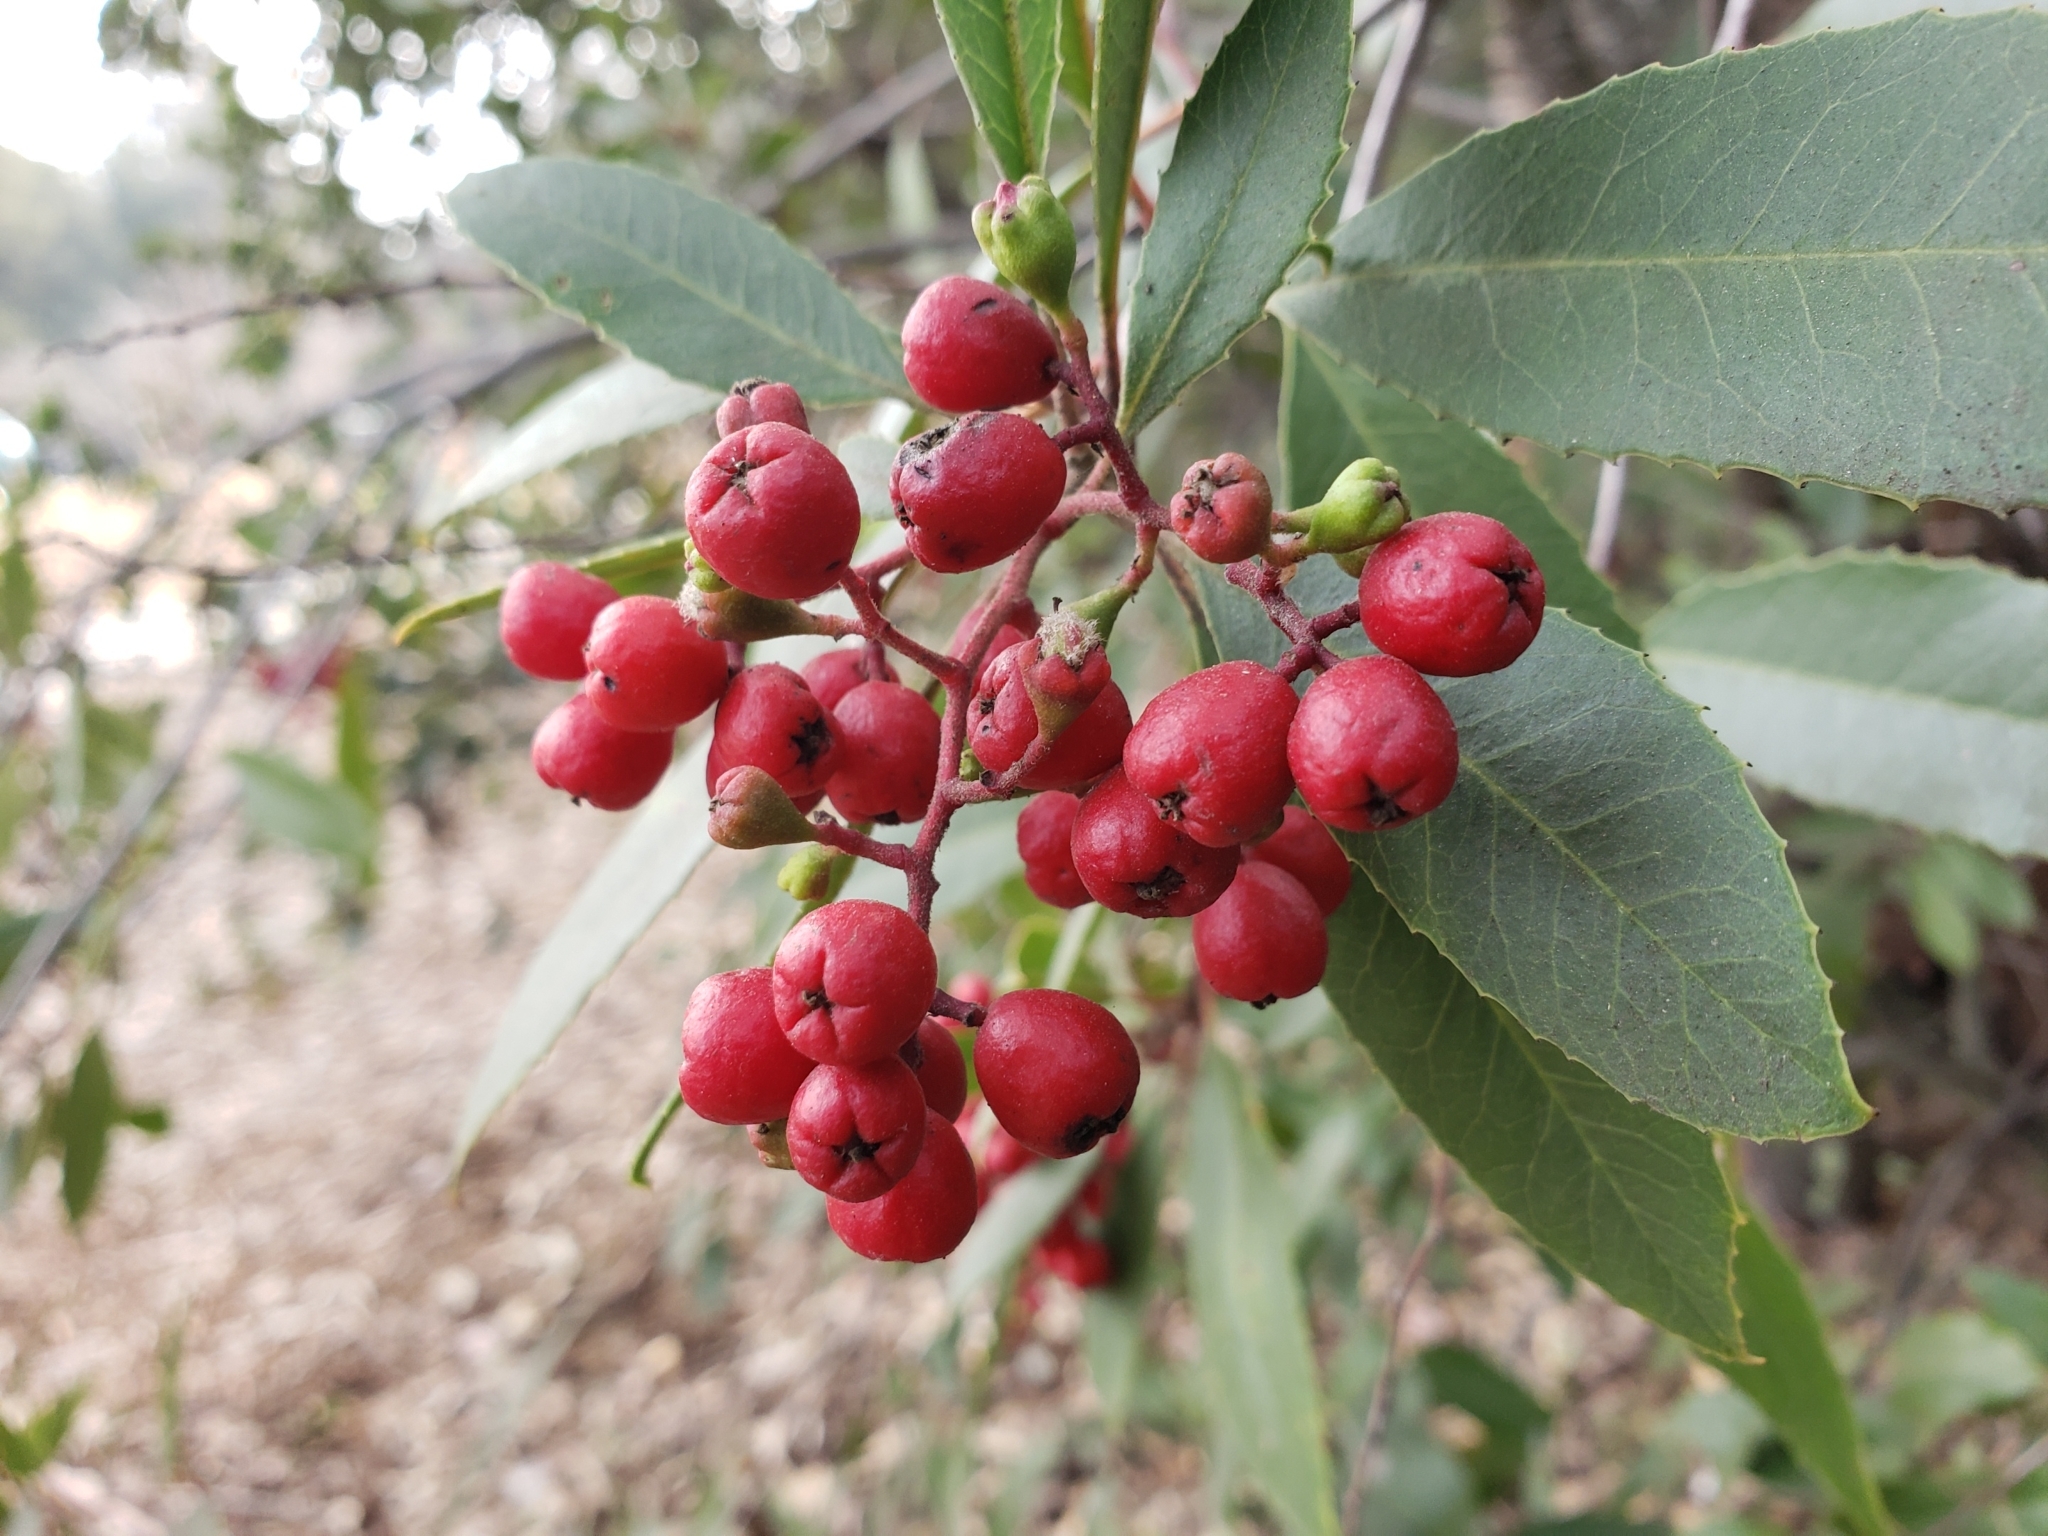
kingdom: Plantae
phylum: Tracheophyta
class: Magnoliopsida
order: Rosales
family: Rosaceae
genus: Heteromeles
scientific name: Heteromeles arbutifolia
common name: California-holly
